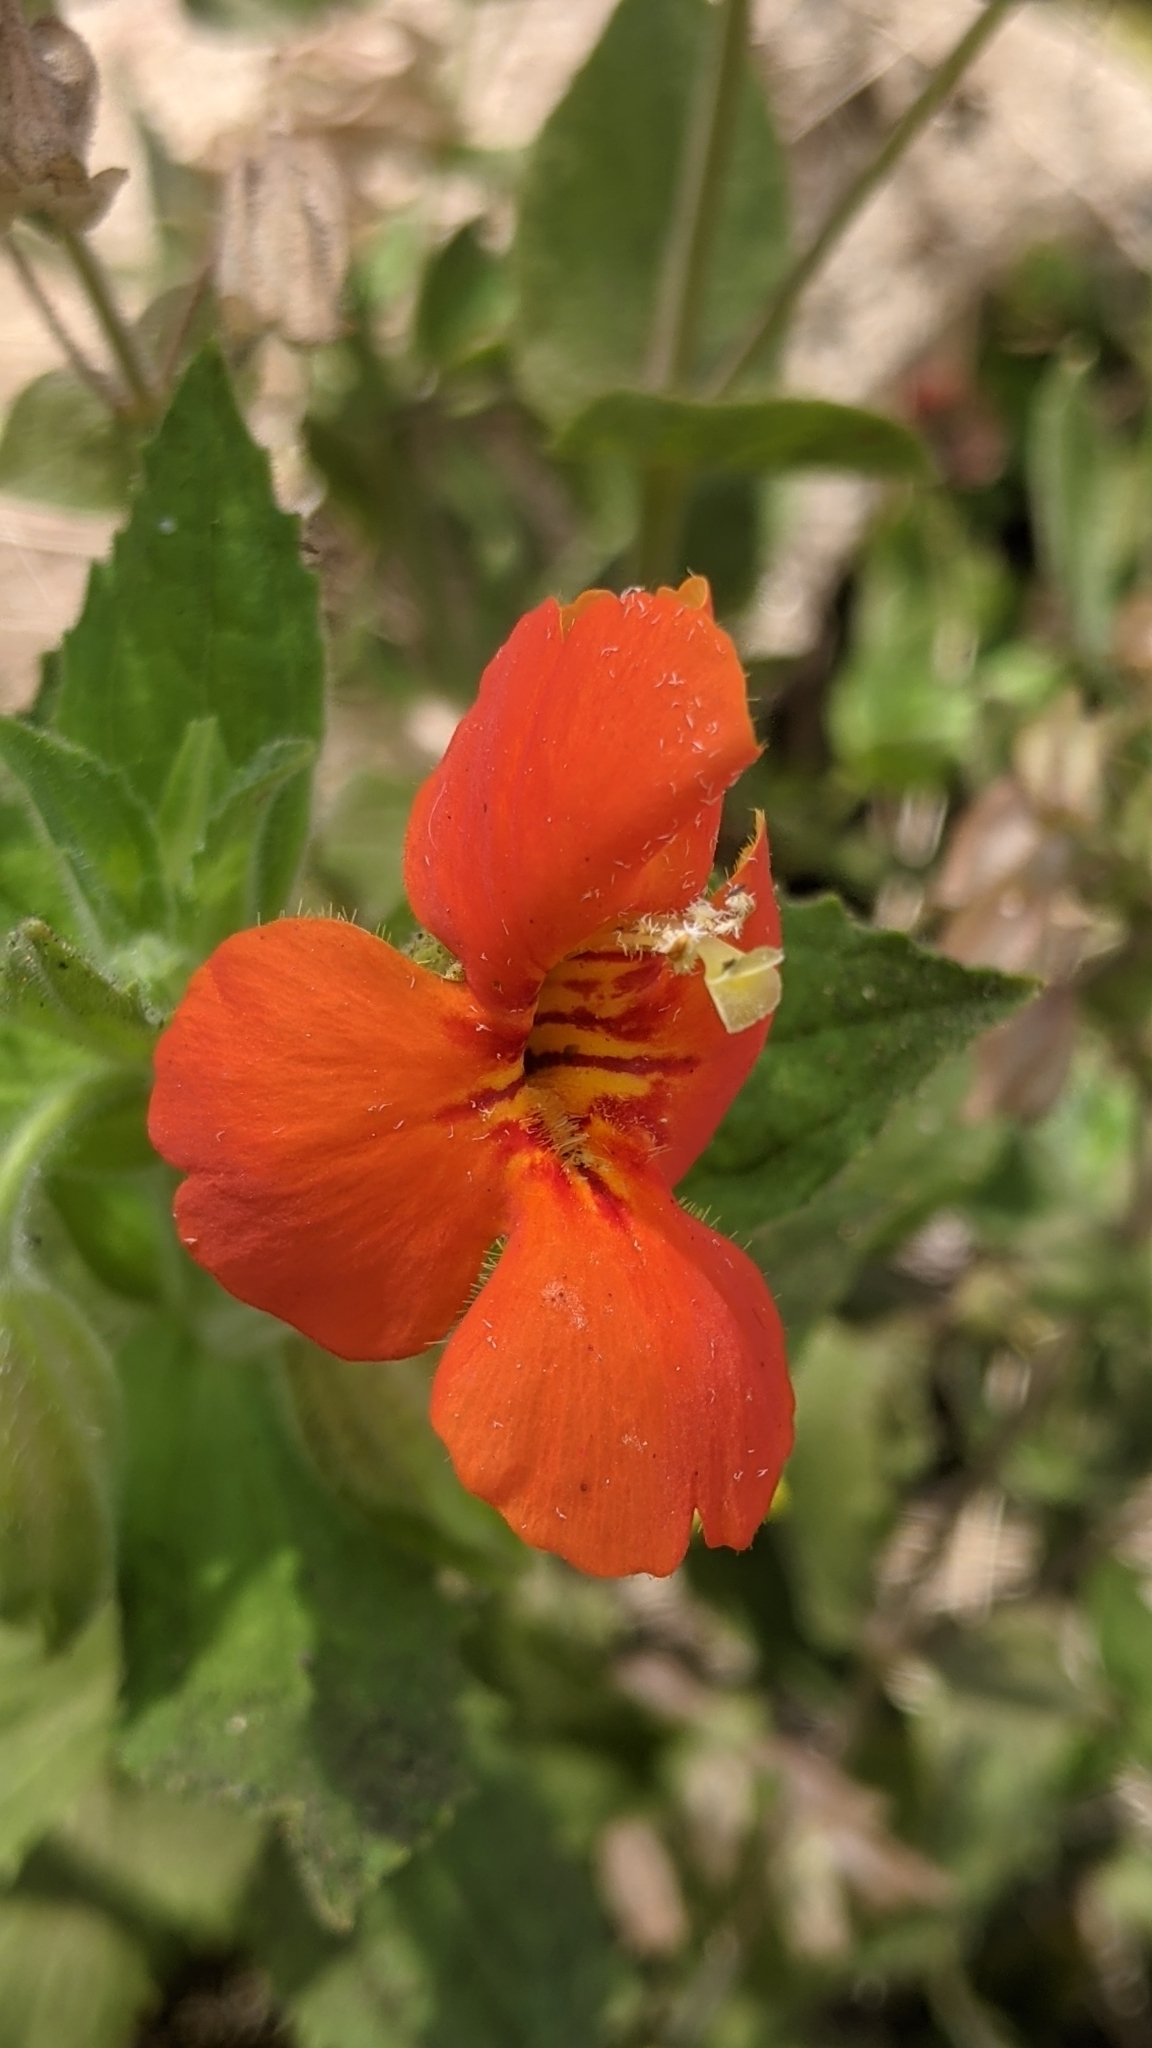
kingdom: Plantae
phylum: Tracheophyta
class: Magnoliopsida
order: Lamiales
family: Phrymaceae
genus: Erythranthe
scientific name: Erythranthe cardinalis
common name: Scarlet monkey-flower
